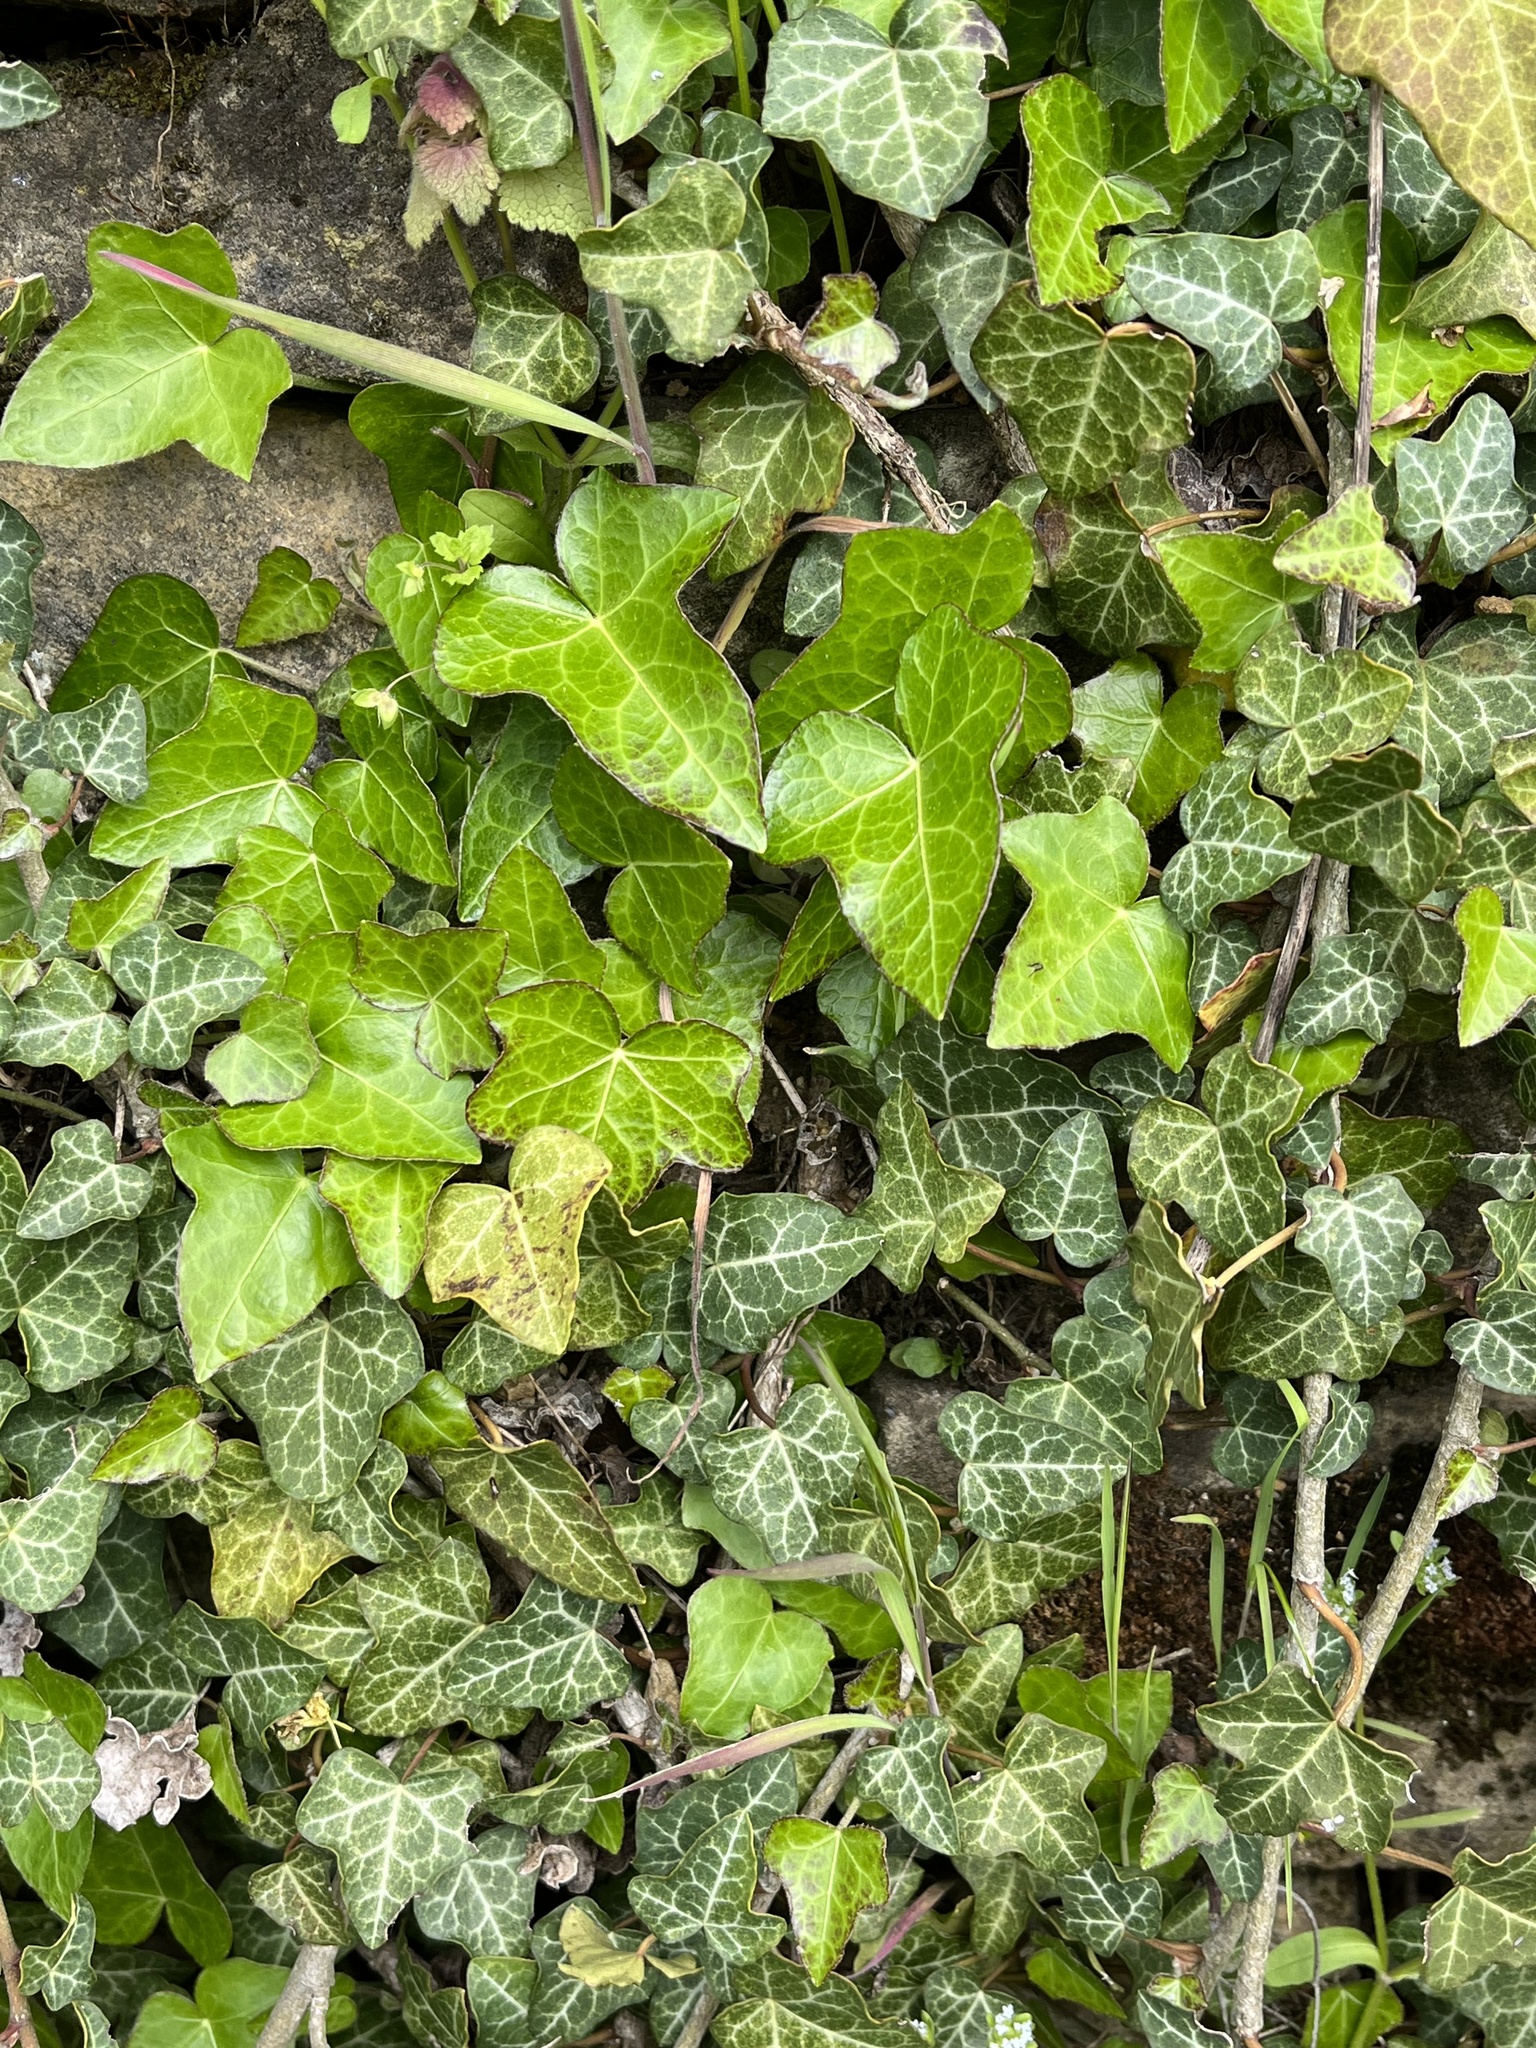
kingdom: Plantae
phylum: Tracheophyta
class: Magnoliopsida
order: Apiales
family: Araliaceae
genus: Hedera
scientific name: Hedera helix
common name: Ivy
